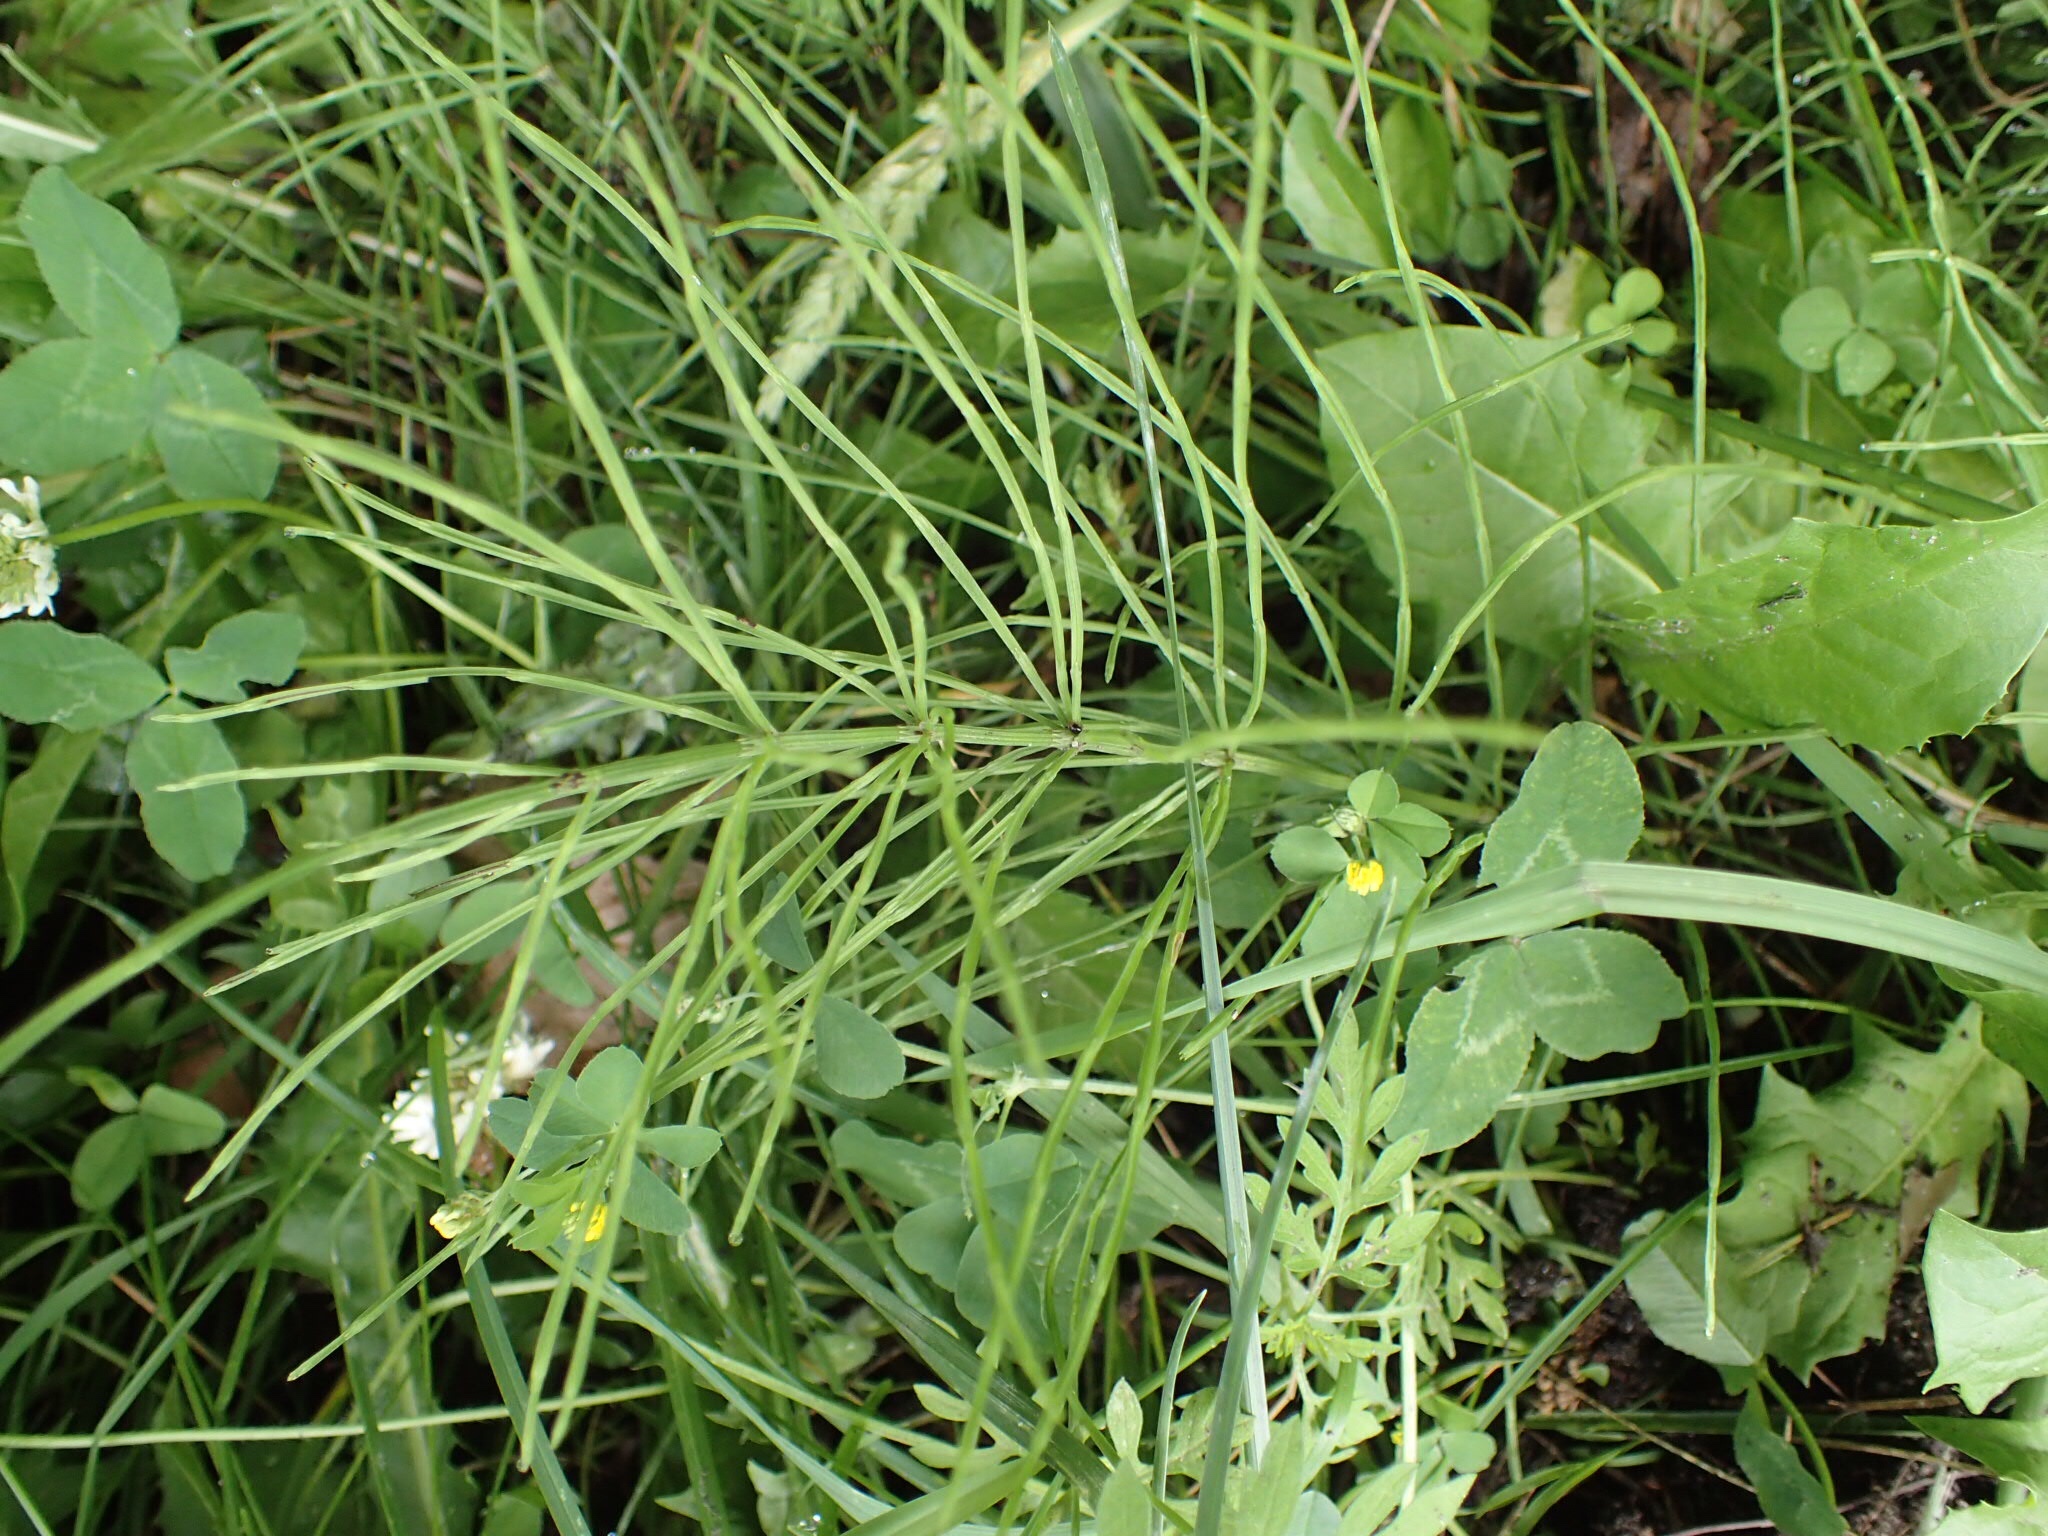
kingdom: Plantae
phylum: Tracheophyta
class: Polypodiopsida
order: Equisetales
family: Equisetaceae
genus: Equisetum
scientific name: Equisetum arvense
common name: Field horsetail
